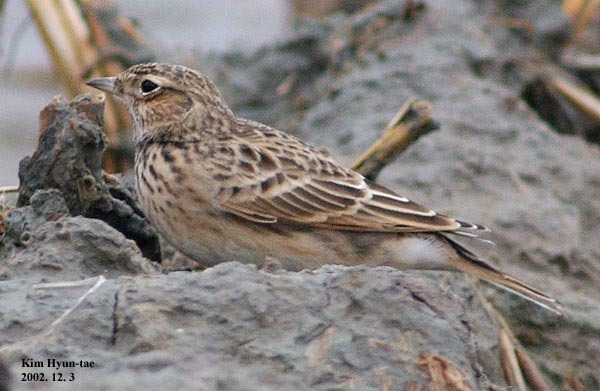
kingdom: Animalia
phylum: Chordata
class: Aves
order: Passeriformes
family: Alaudidae
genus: Alauda
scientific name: Alauda arvensis
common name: Eurasian skylark
